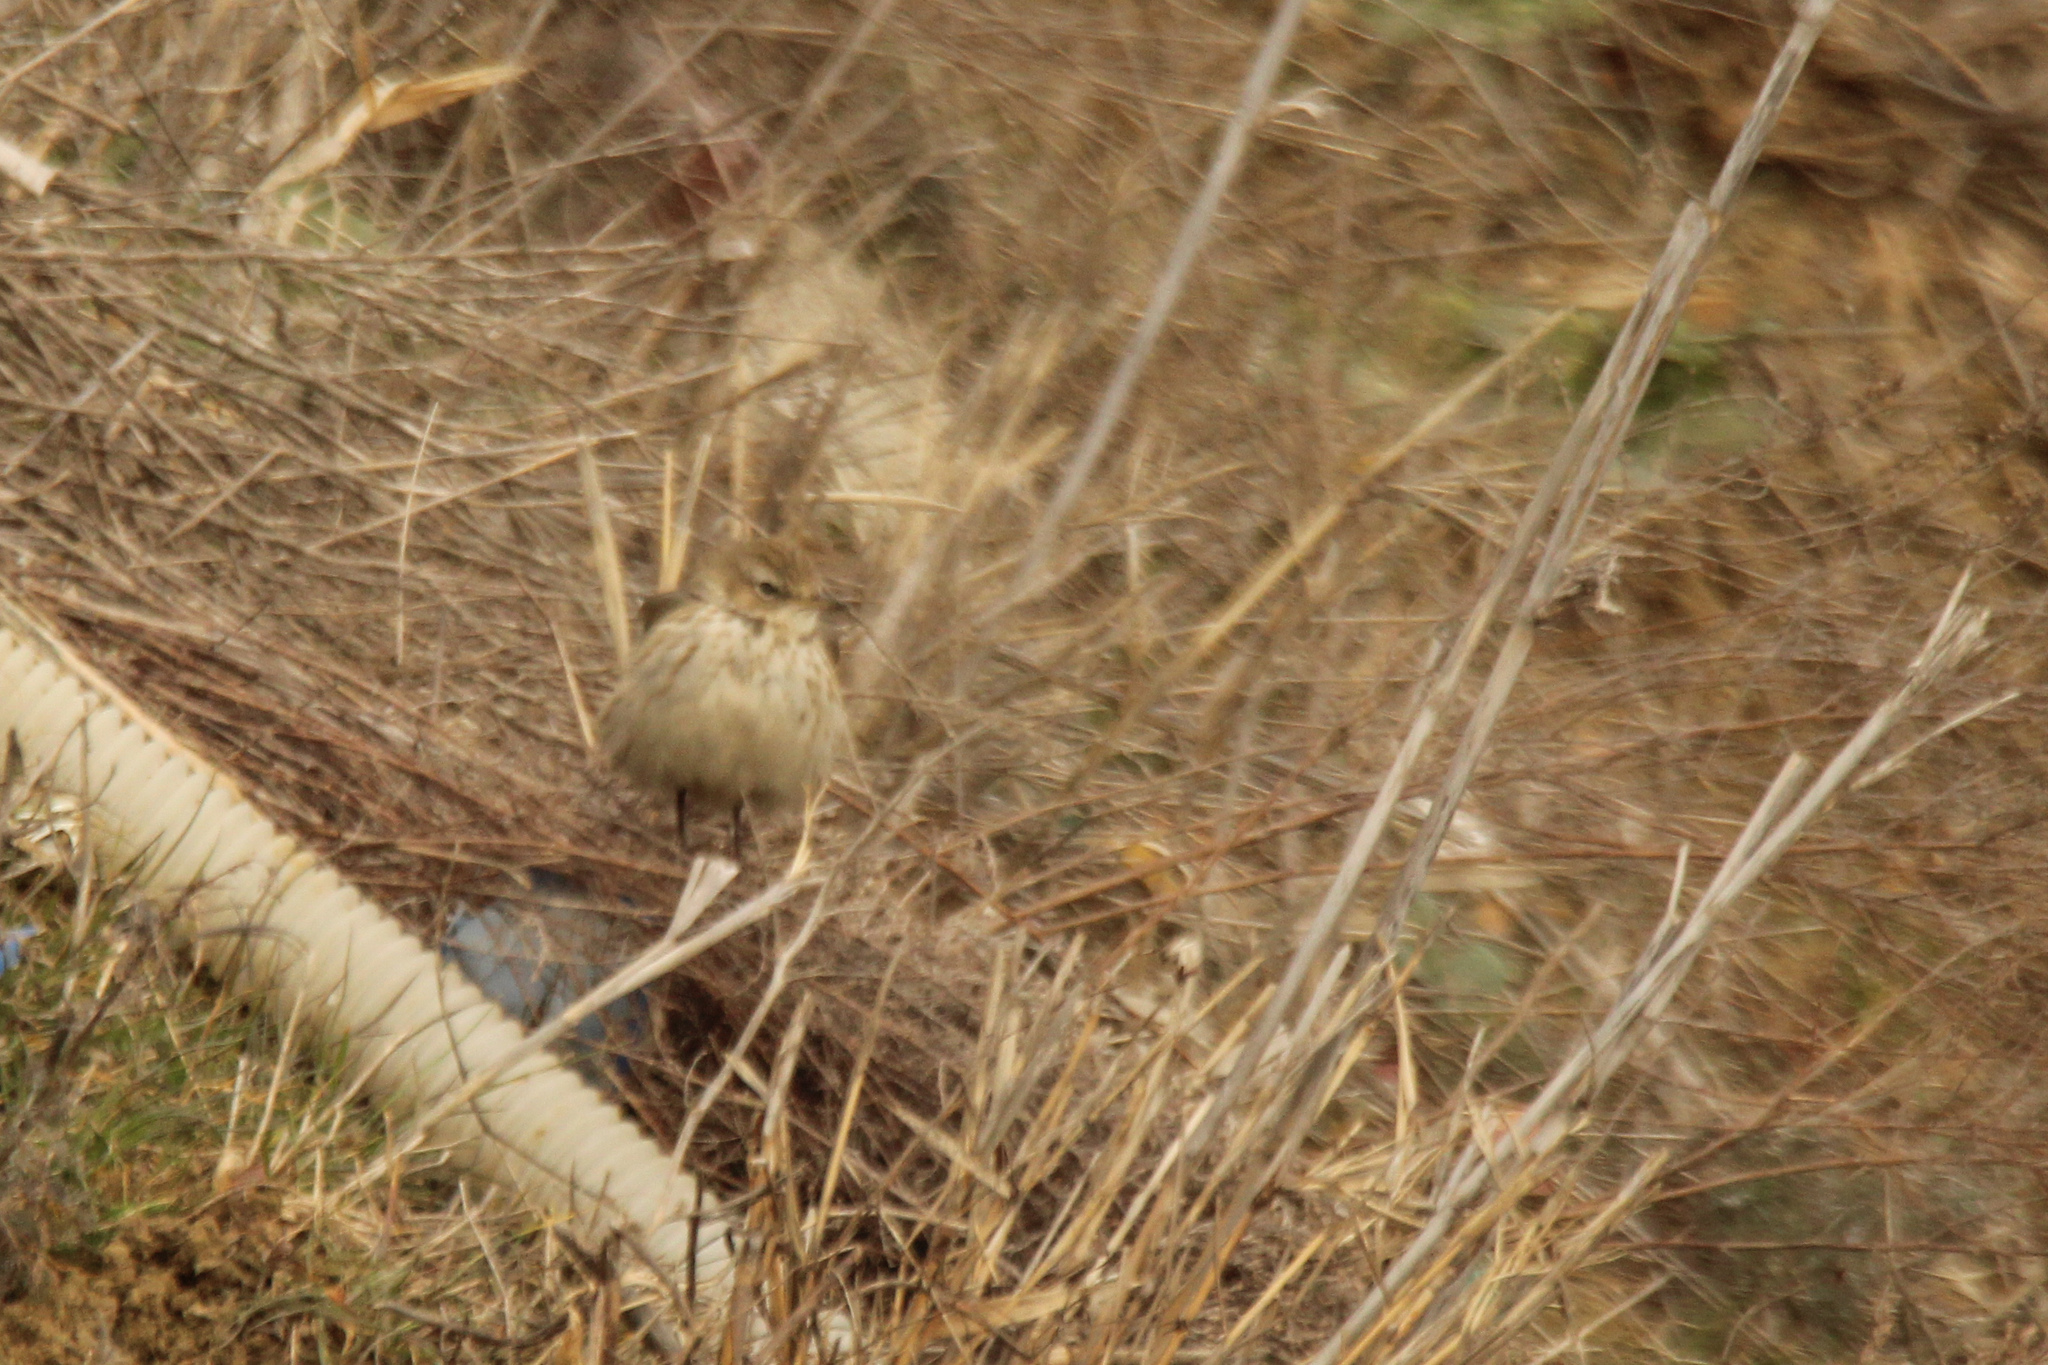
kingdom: Animalia
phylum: Chordata
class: Aves
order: Passeriformes
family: Motacillidae
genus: Anthus
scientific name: Anthus spinoletta
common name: Water pipit
